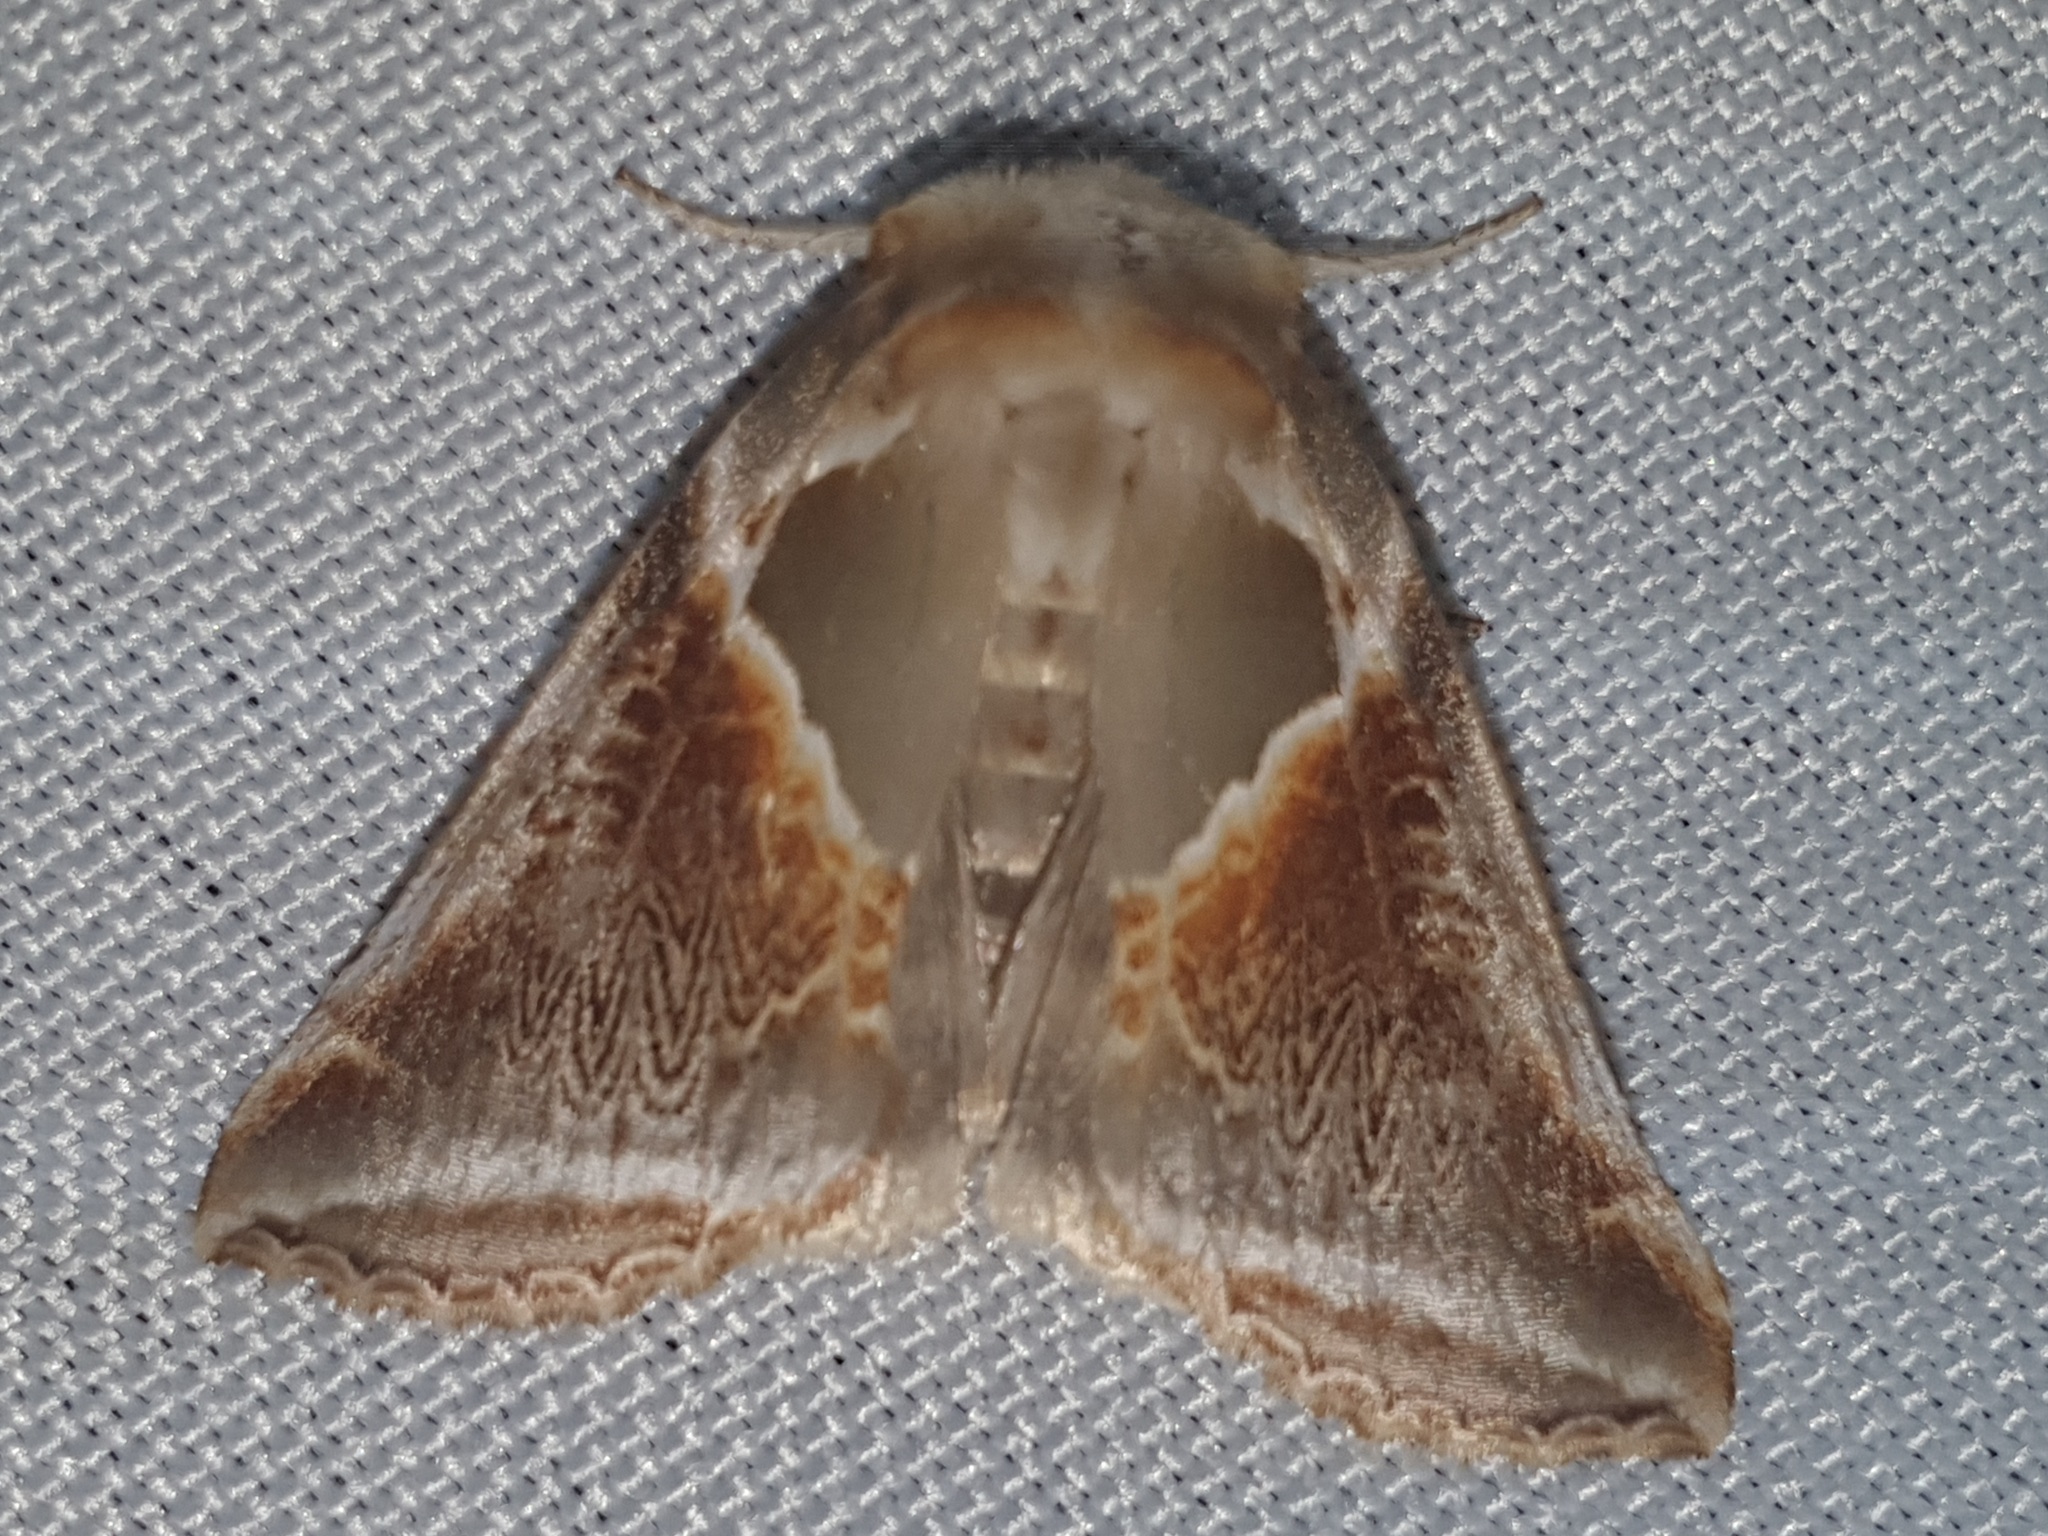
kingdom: Animalia
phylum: Arthropoda
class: Insecta
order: Lepidoptera
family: Drepanidae
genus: Habrosyne
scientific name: Habrosyne pyritoides
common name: Buff arches
